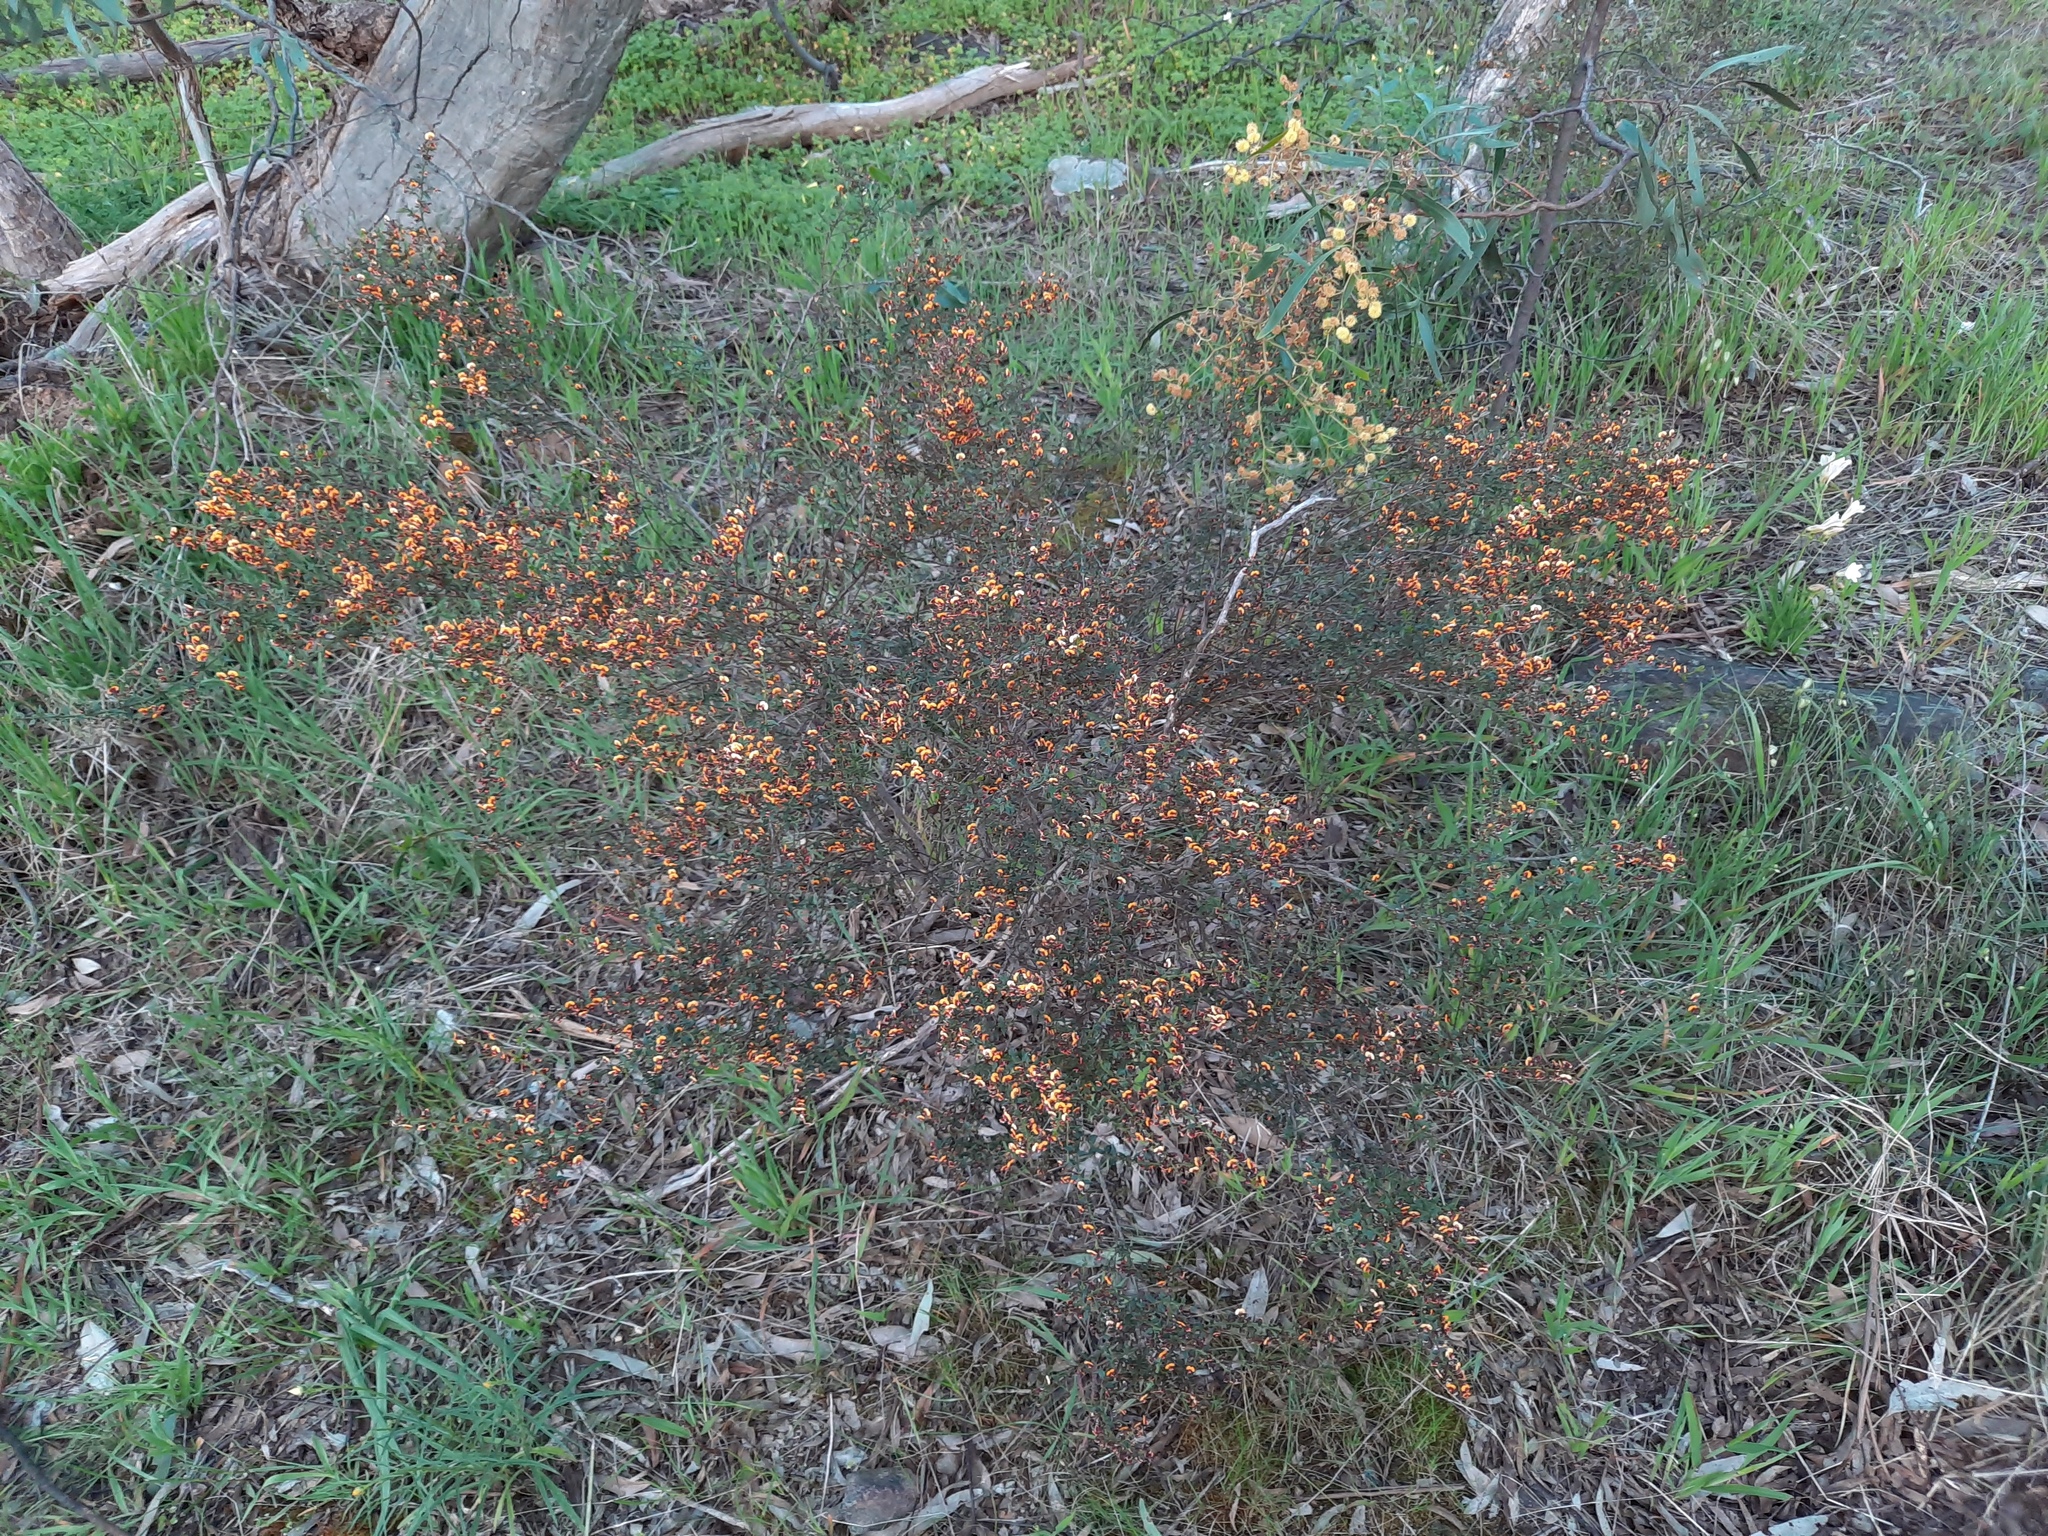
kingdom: Plantae
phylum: Tracheophyta
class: Magnoliopsida
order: Fabales
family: Fabaceae
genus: Daviesia
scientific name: Daviesia ulicifolia
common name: Gorse bitter-pea
